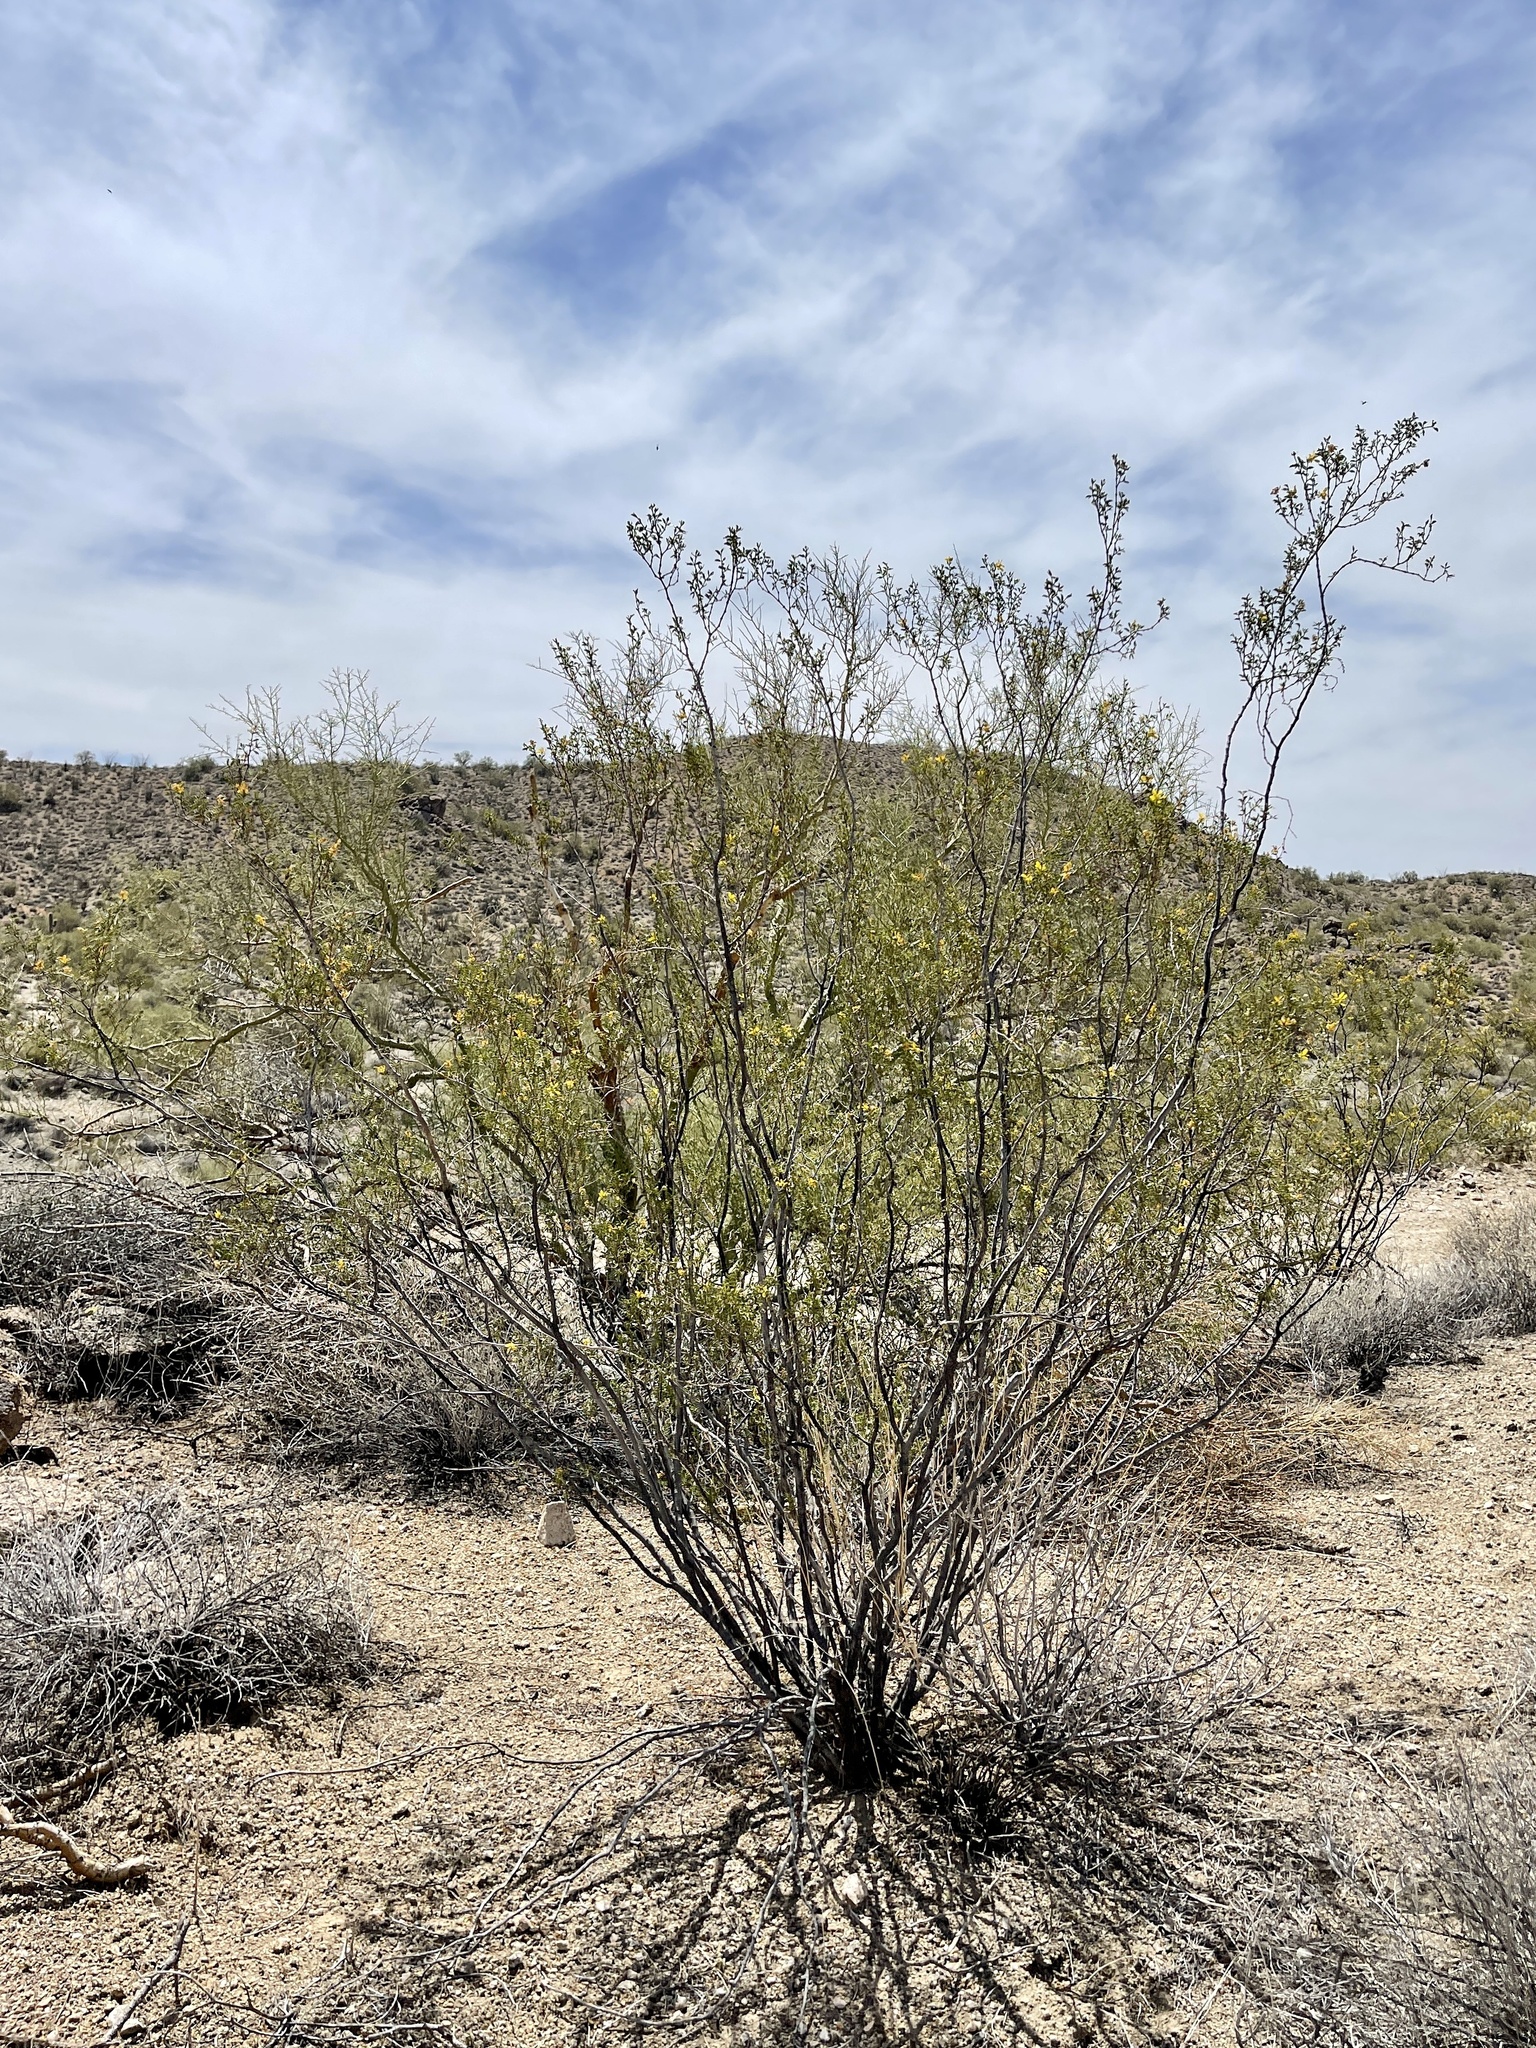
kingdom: Plantae
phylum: Tracheophyta
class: Magnoliopsida
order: Zygophyllales
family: Zygophyllaceae
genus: Larrea
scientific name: Larrea tridentata
